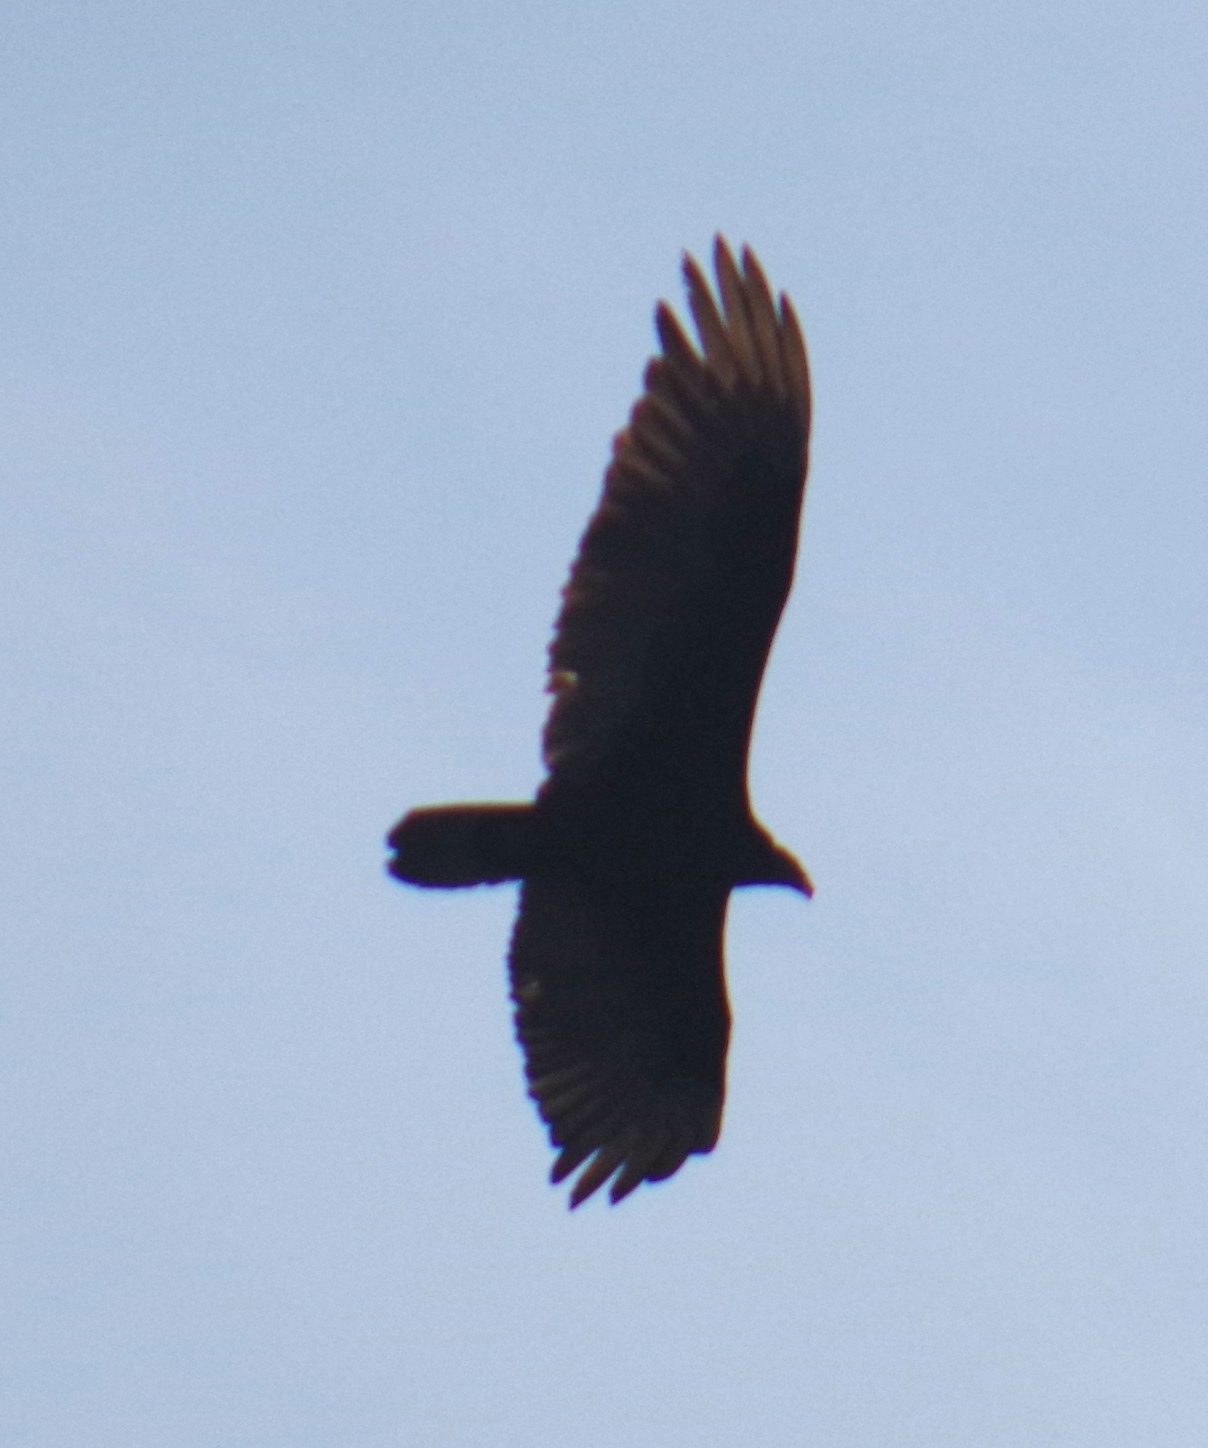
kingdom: Animalia
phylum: Chordata
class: Aves
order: Accipitriformes
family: Cathartidae
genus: Cathartes
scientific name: Cathartes aura
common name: Turkey vulture
